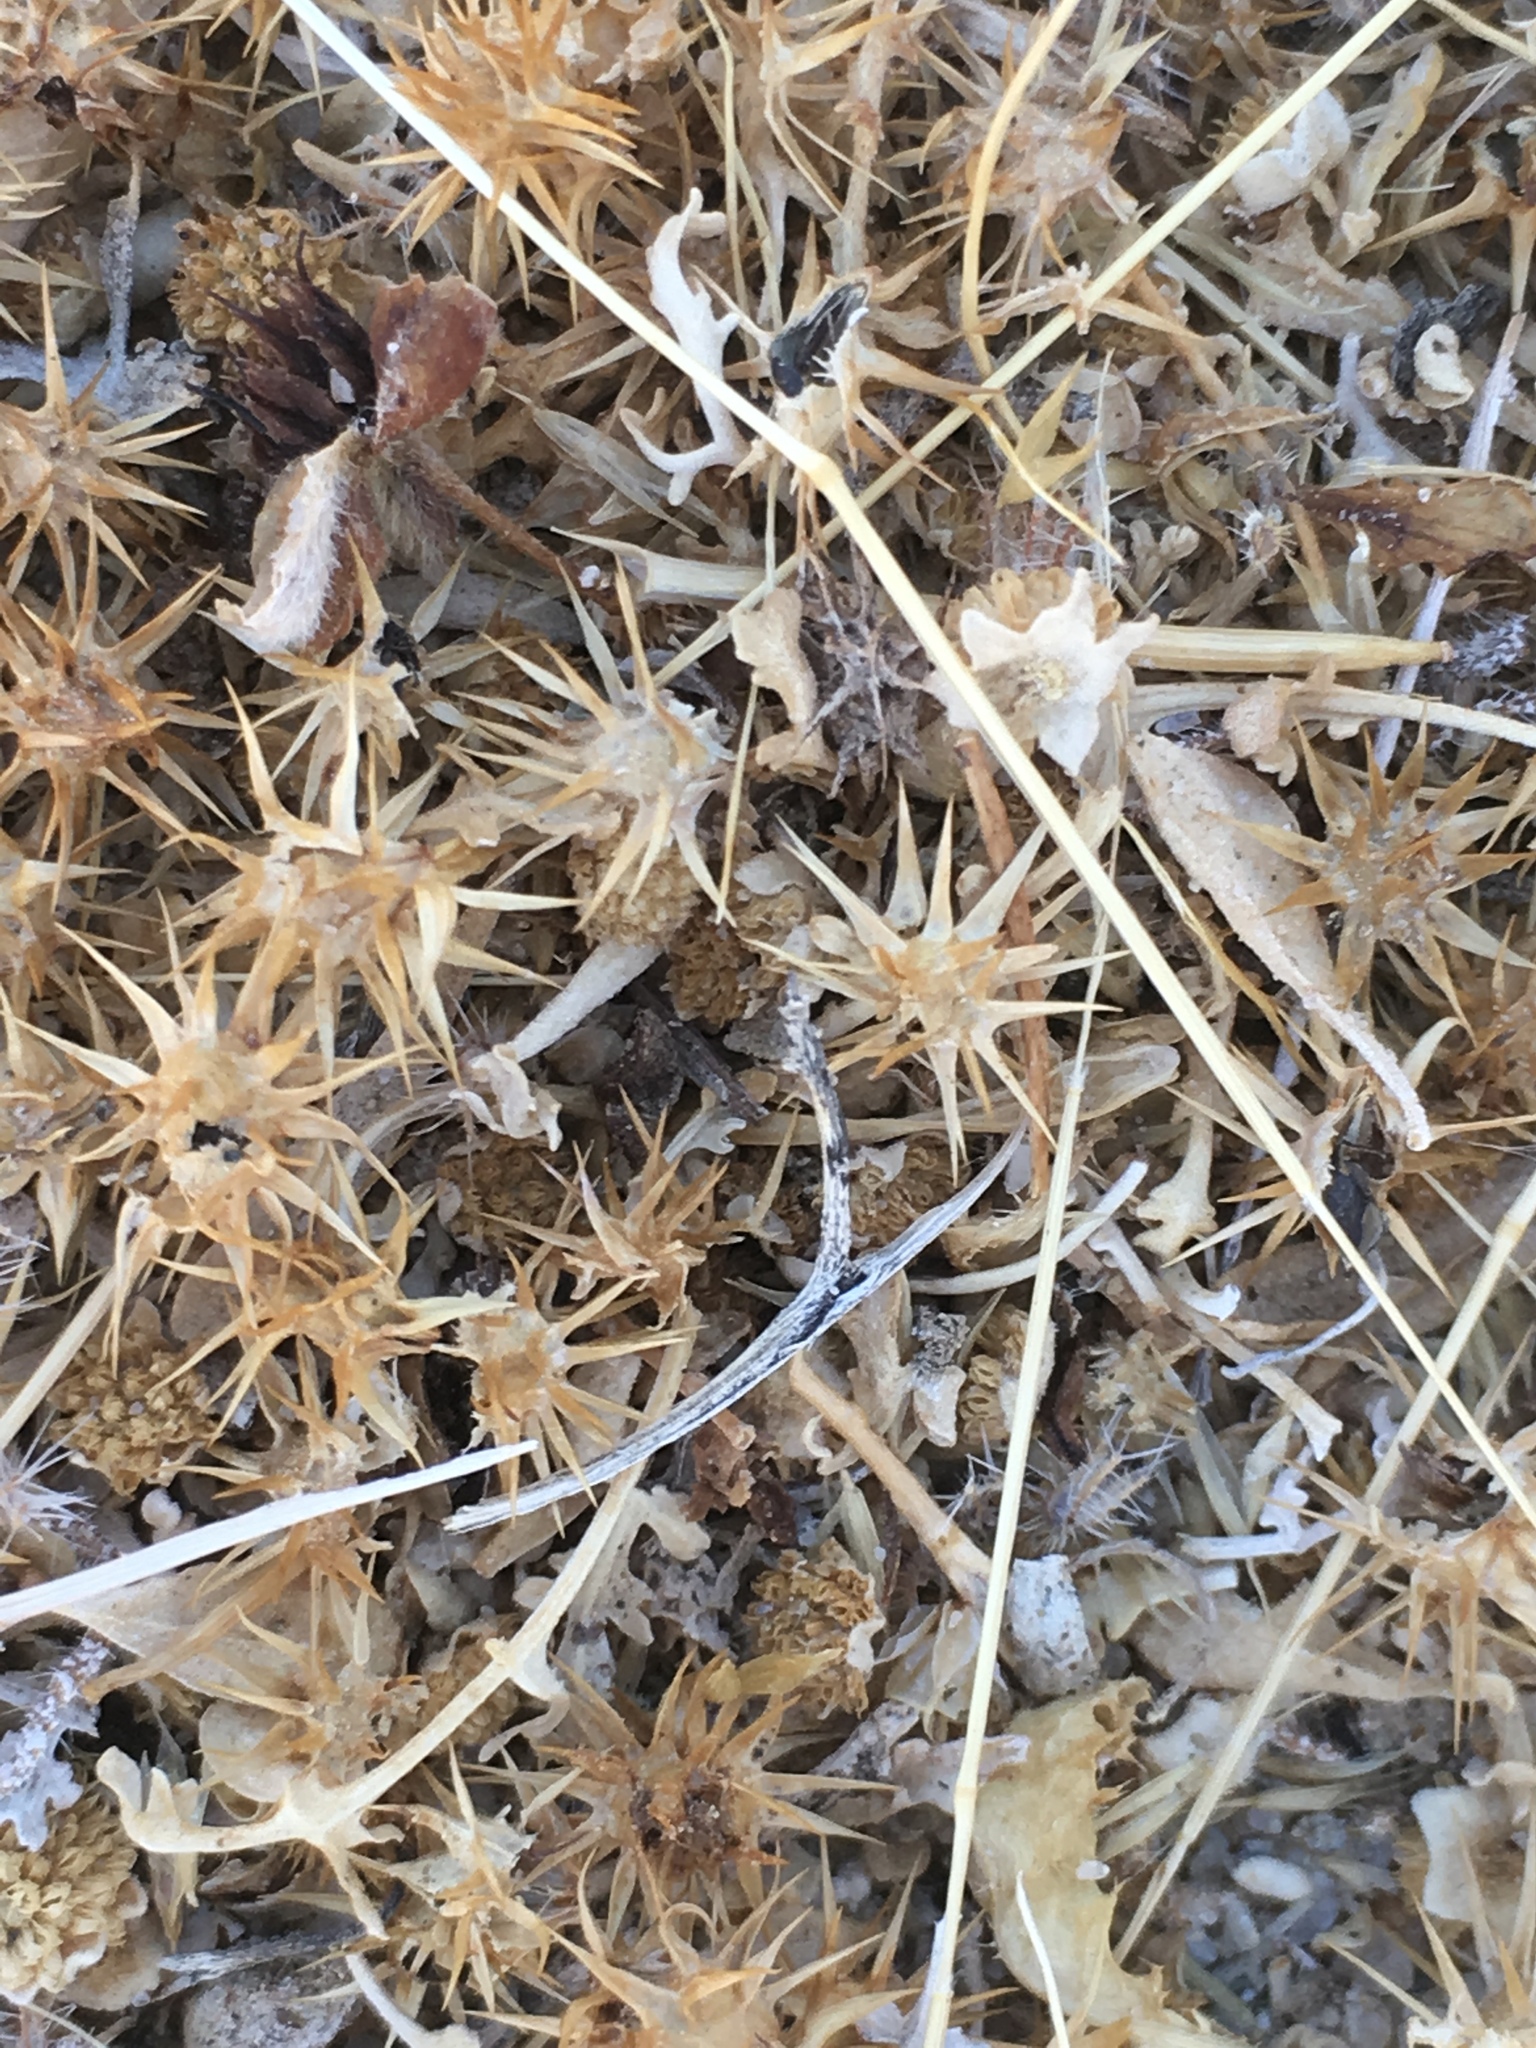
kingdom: Plantae
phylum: Tracheophyta
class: Magnoliopsida
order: Asterales
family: Asteraceae
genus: Ambrosia
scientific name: Ambrosia dumosa
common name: Bur-sage
